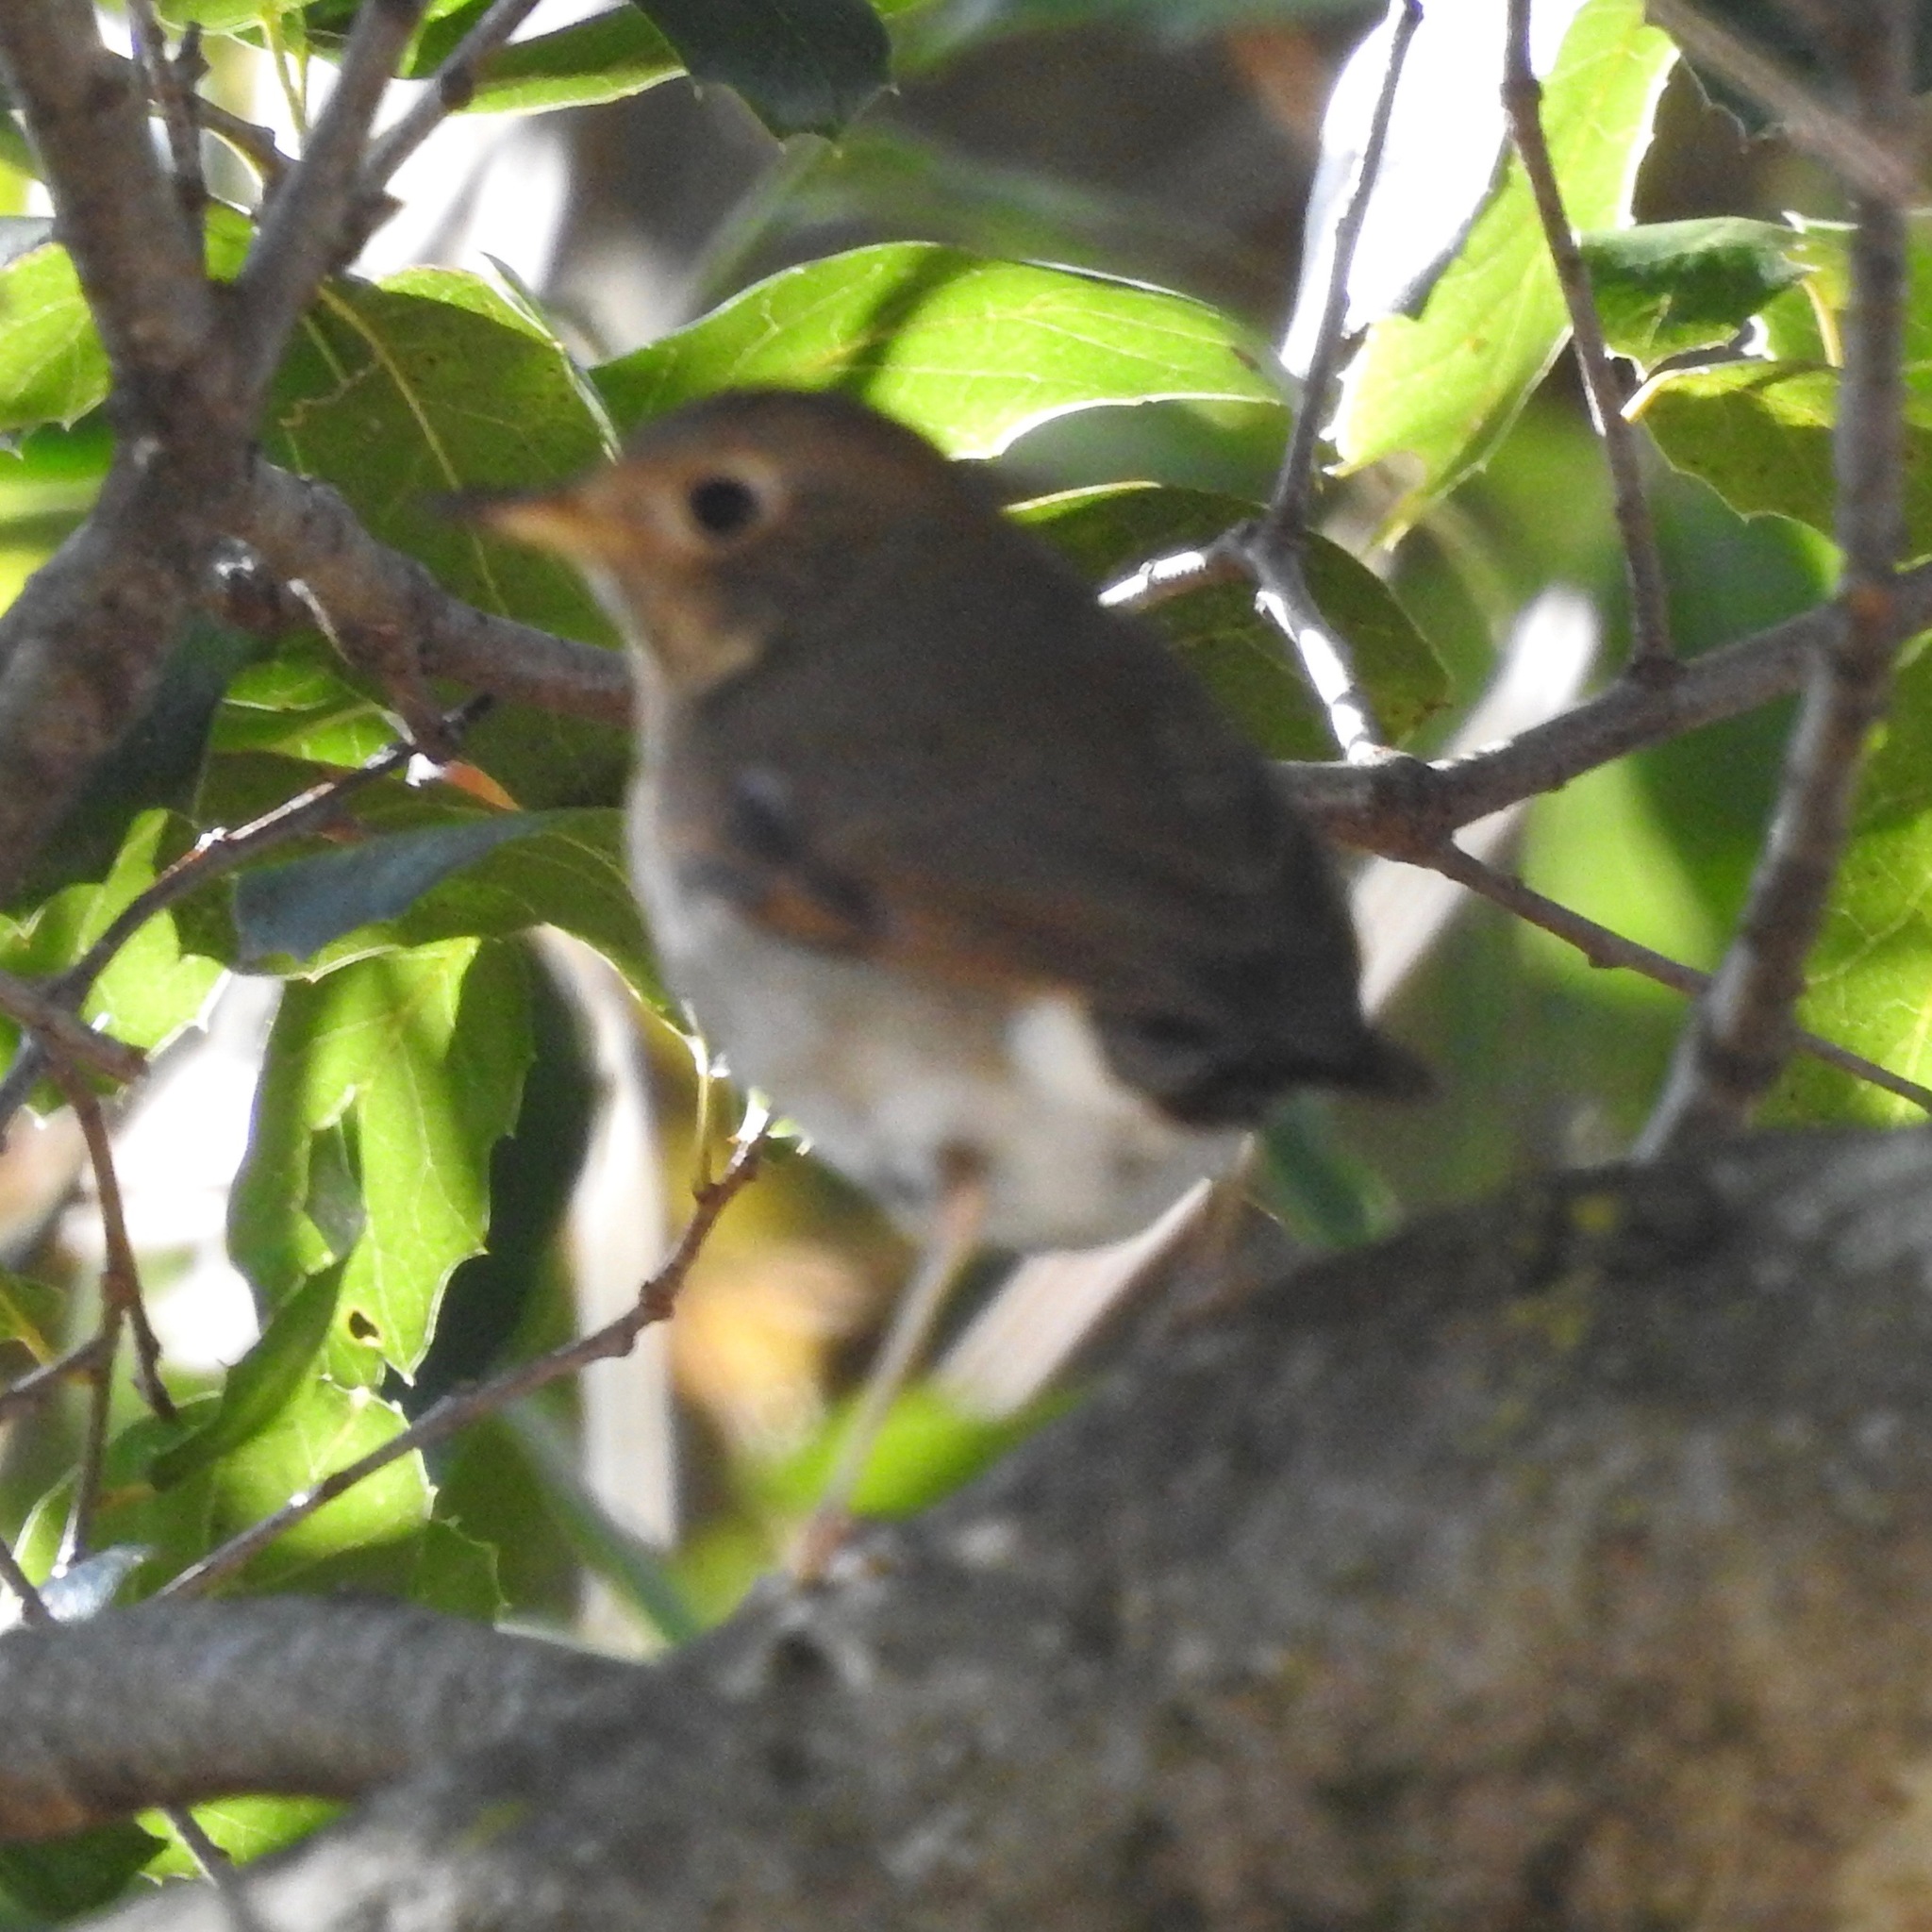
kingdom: Animalia
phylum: Chordata
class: Aves
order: Passeriformes
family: Turdidae
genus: Catharus
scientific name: Catharus guttatus
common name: Hermit thrush
